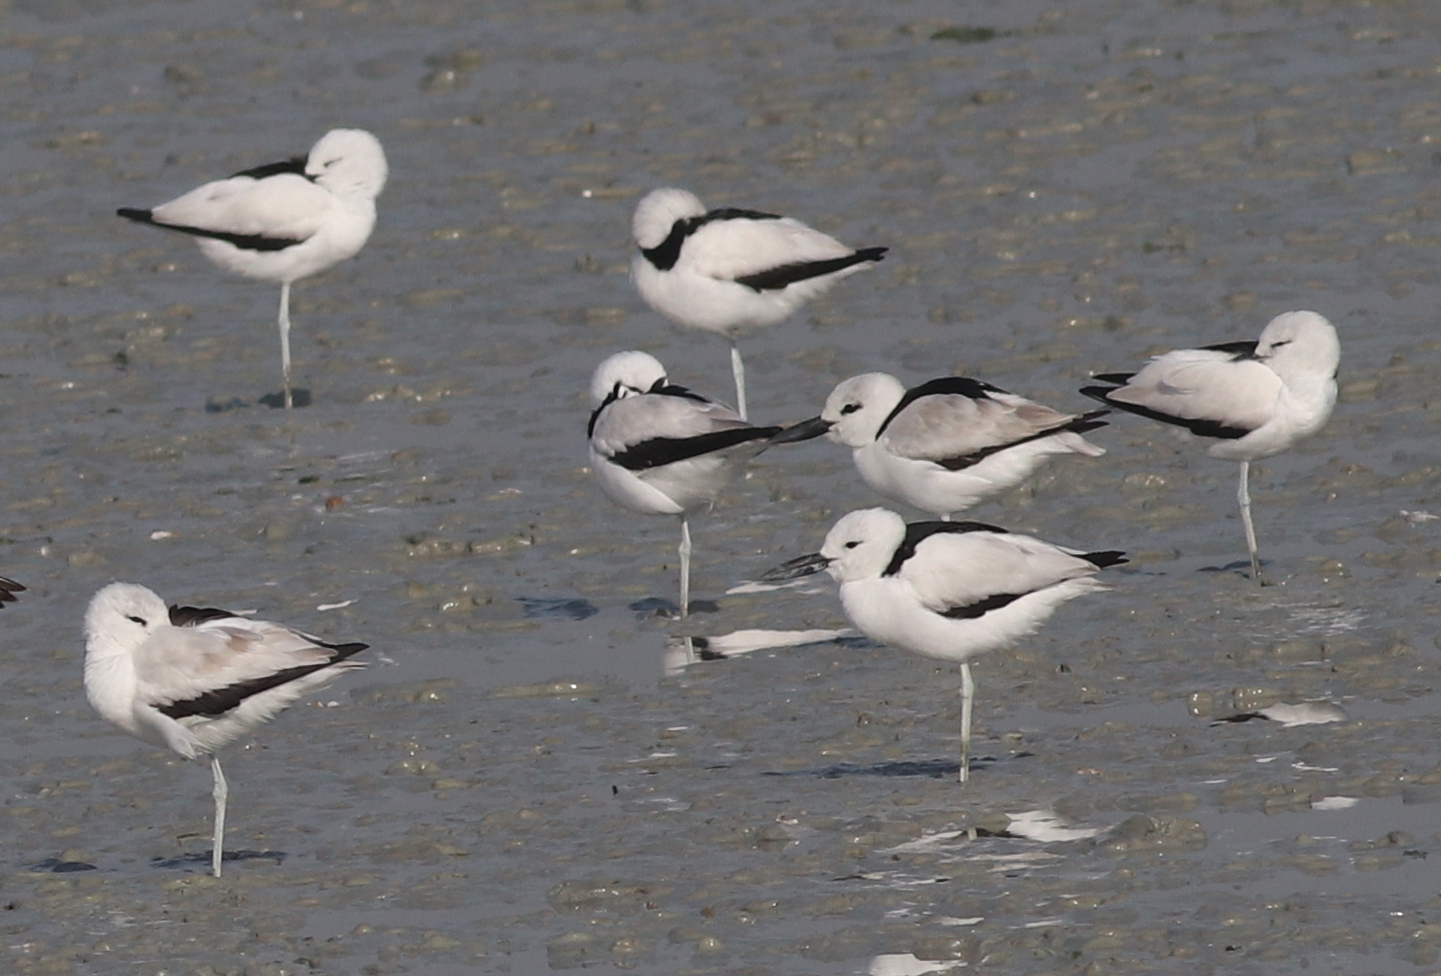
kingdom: Animalia
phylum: Chordata
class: Aves
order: Charadriiformes
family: Dromadidae
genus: Dromas
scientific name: Dromas ardeola
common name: Crab-plover
